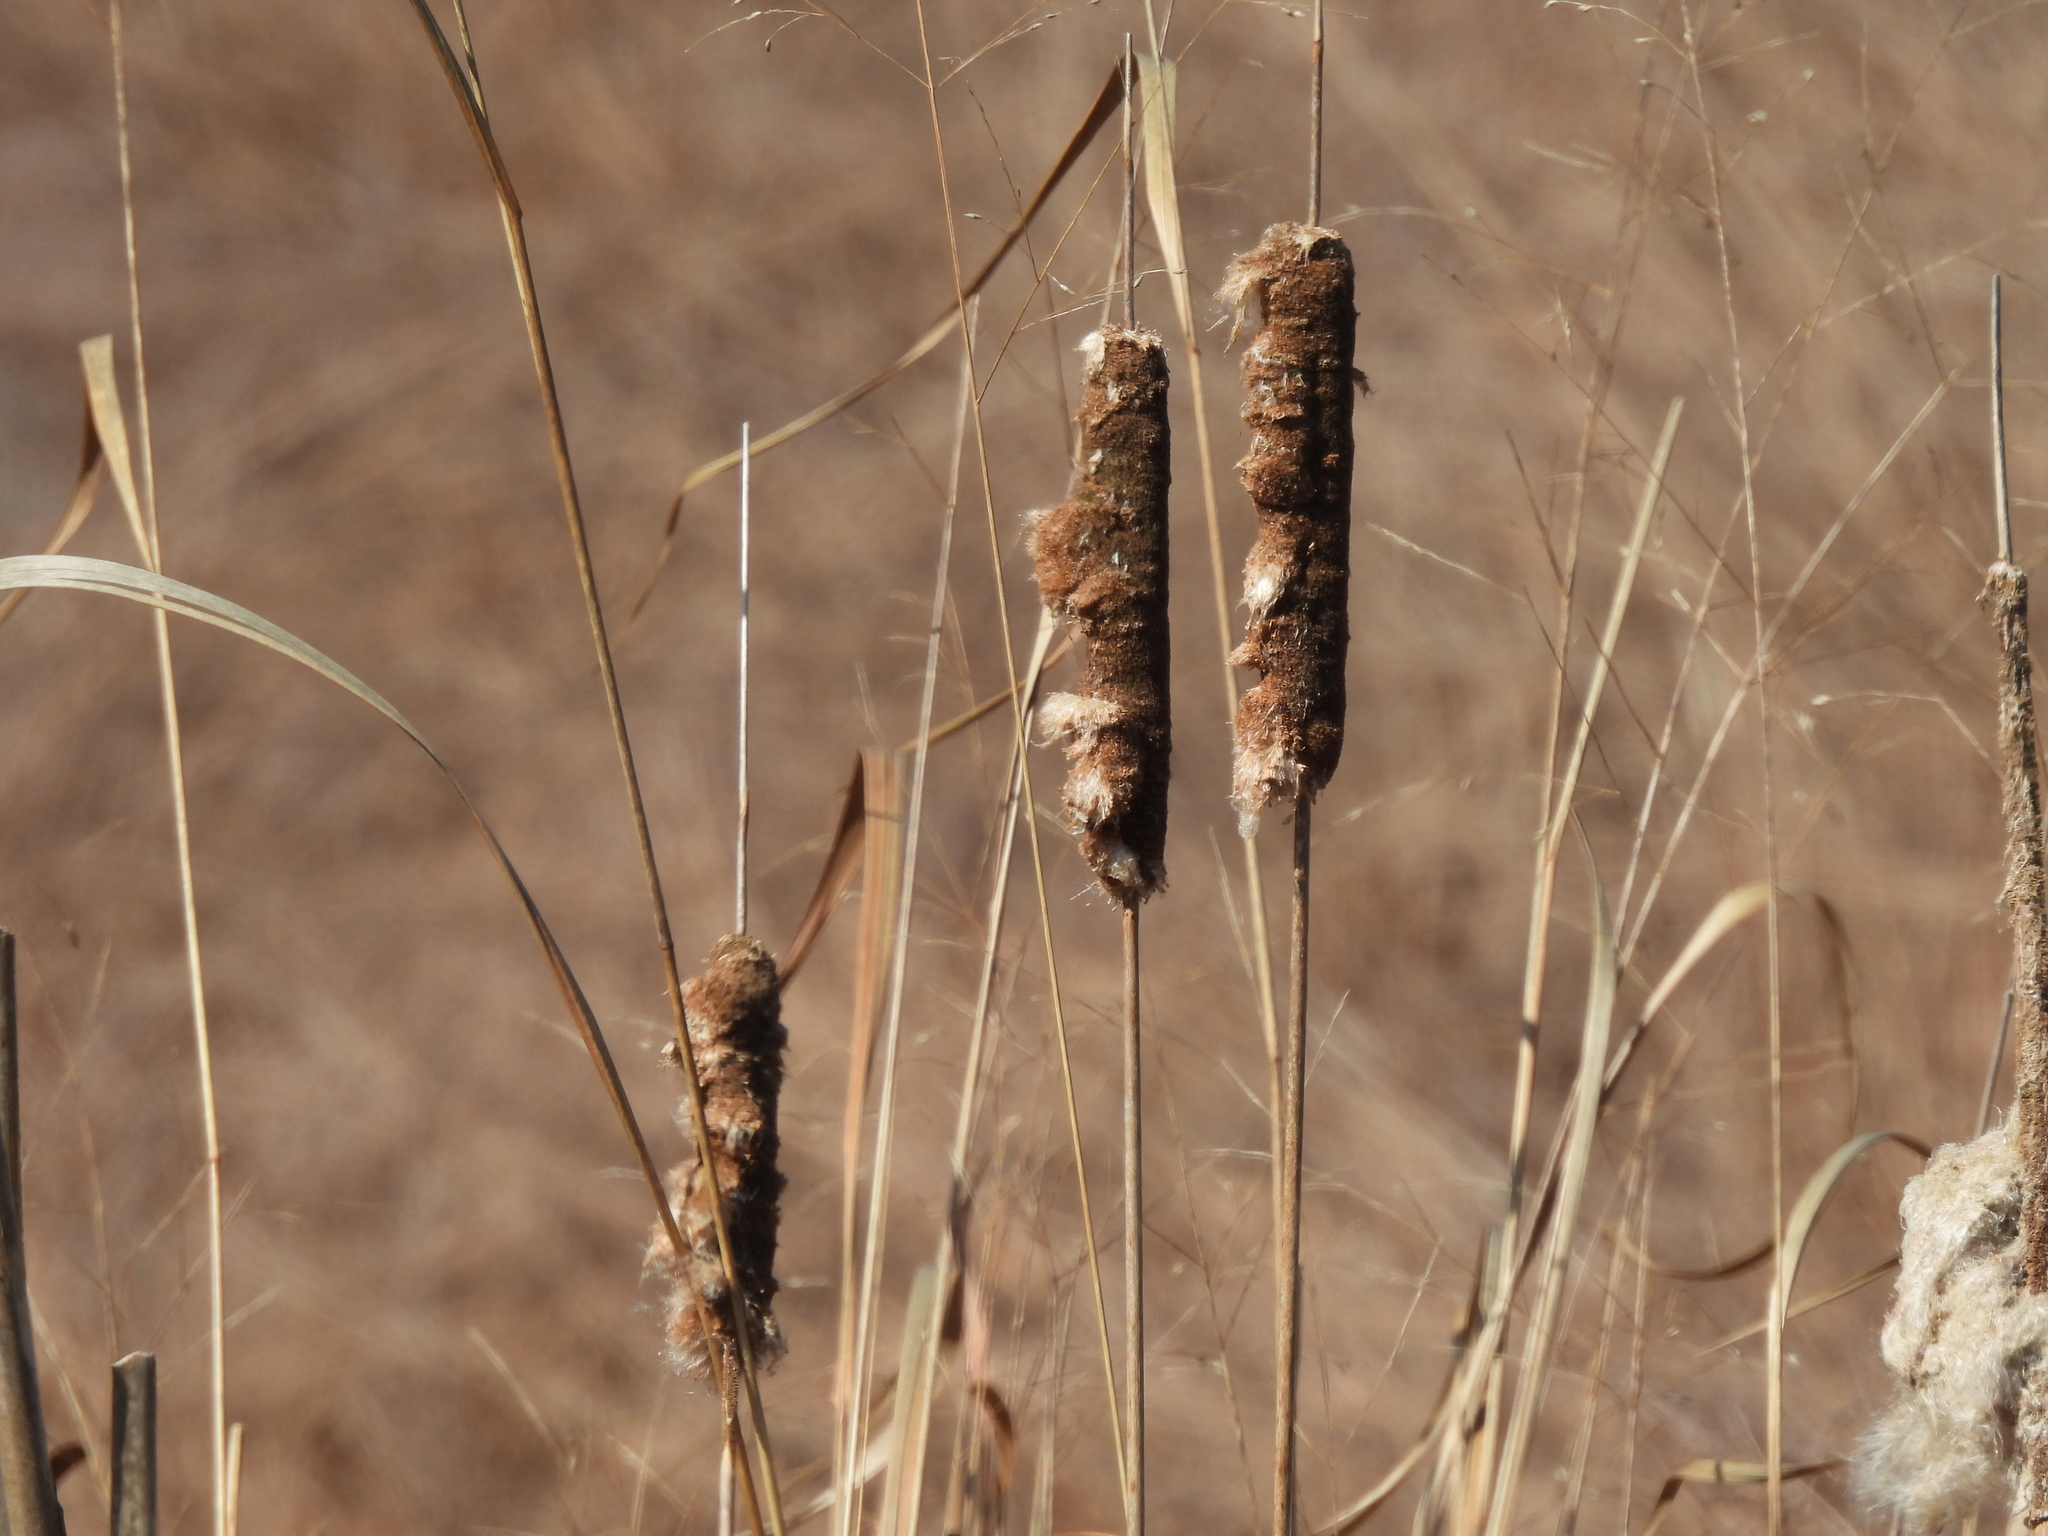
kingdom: Plantae
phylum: Tracheophyta
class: Liliopsida
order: Poales
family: Typhaceae
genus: Typha
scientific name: Typha latifolia
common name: Broadleaf cattail
